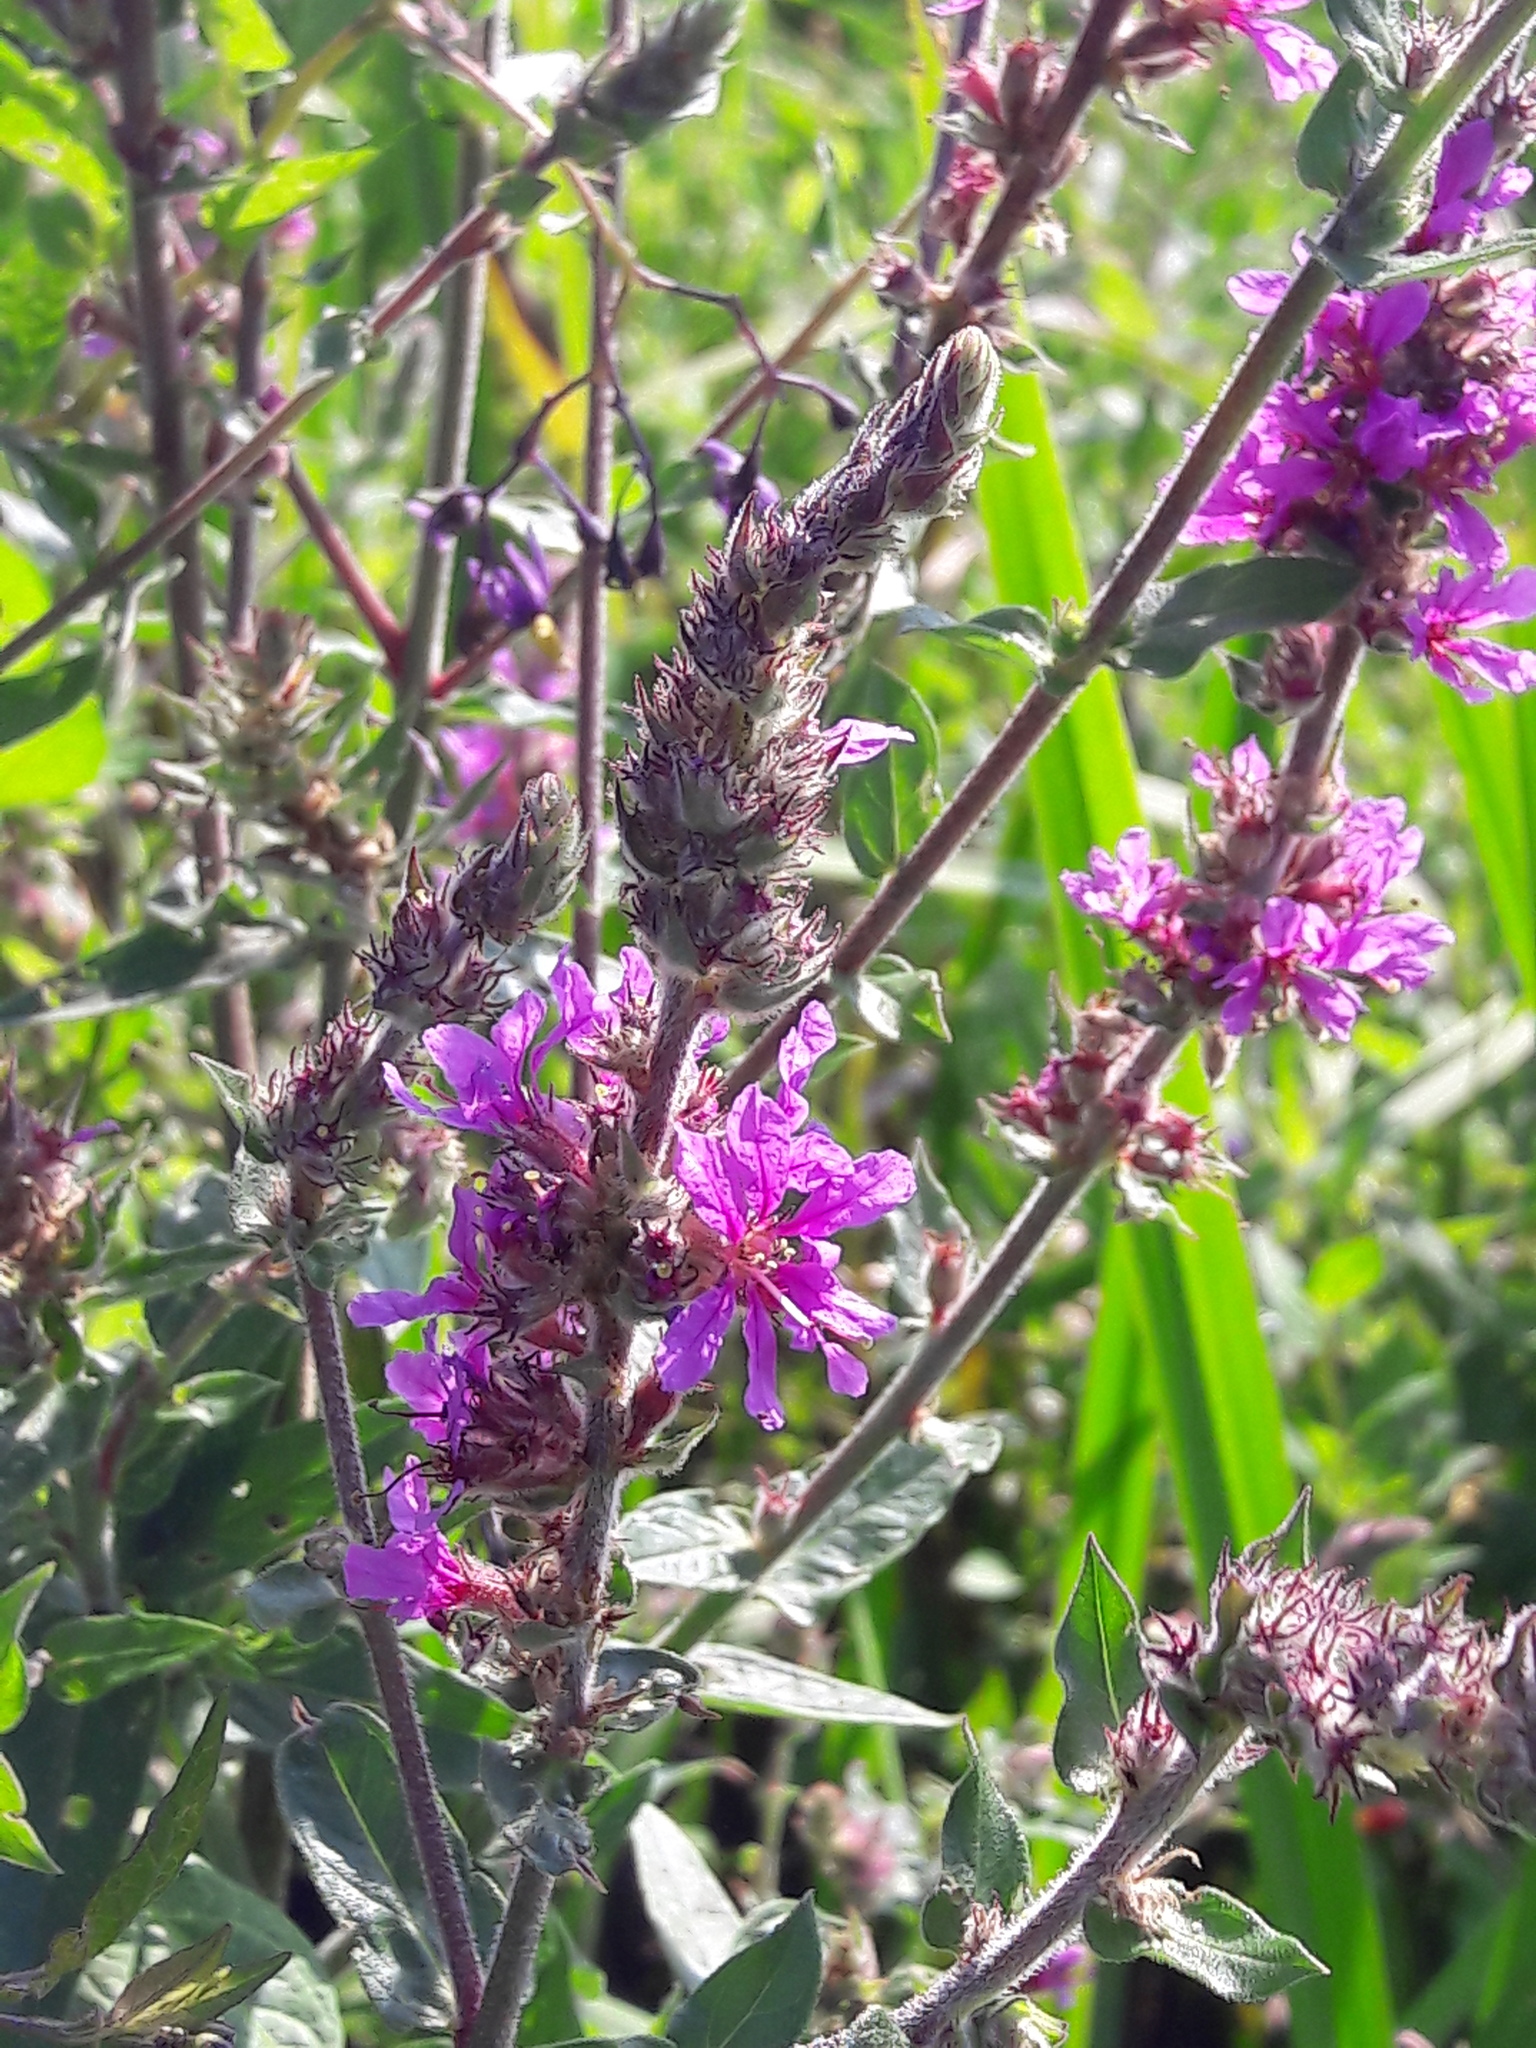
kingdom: Plantae
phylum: Tracheophyta
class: Magnoliopsida
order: Myrtales
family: Lythraceae
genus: Lythrum
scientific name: Lythrum salicaria
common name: Purple loosestrife
